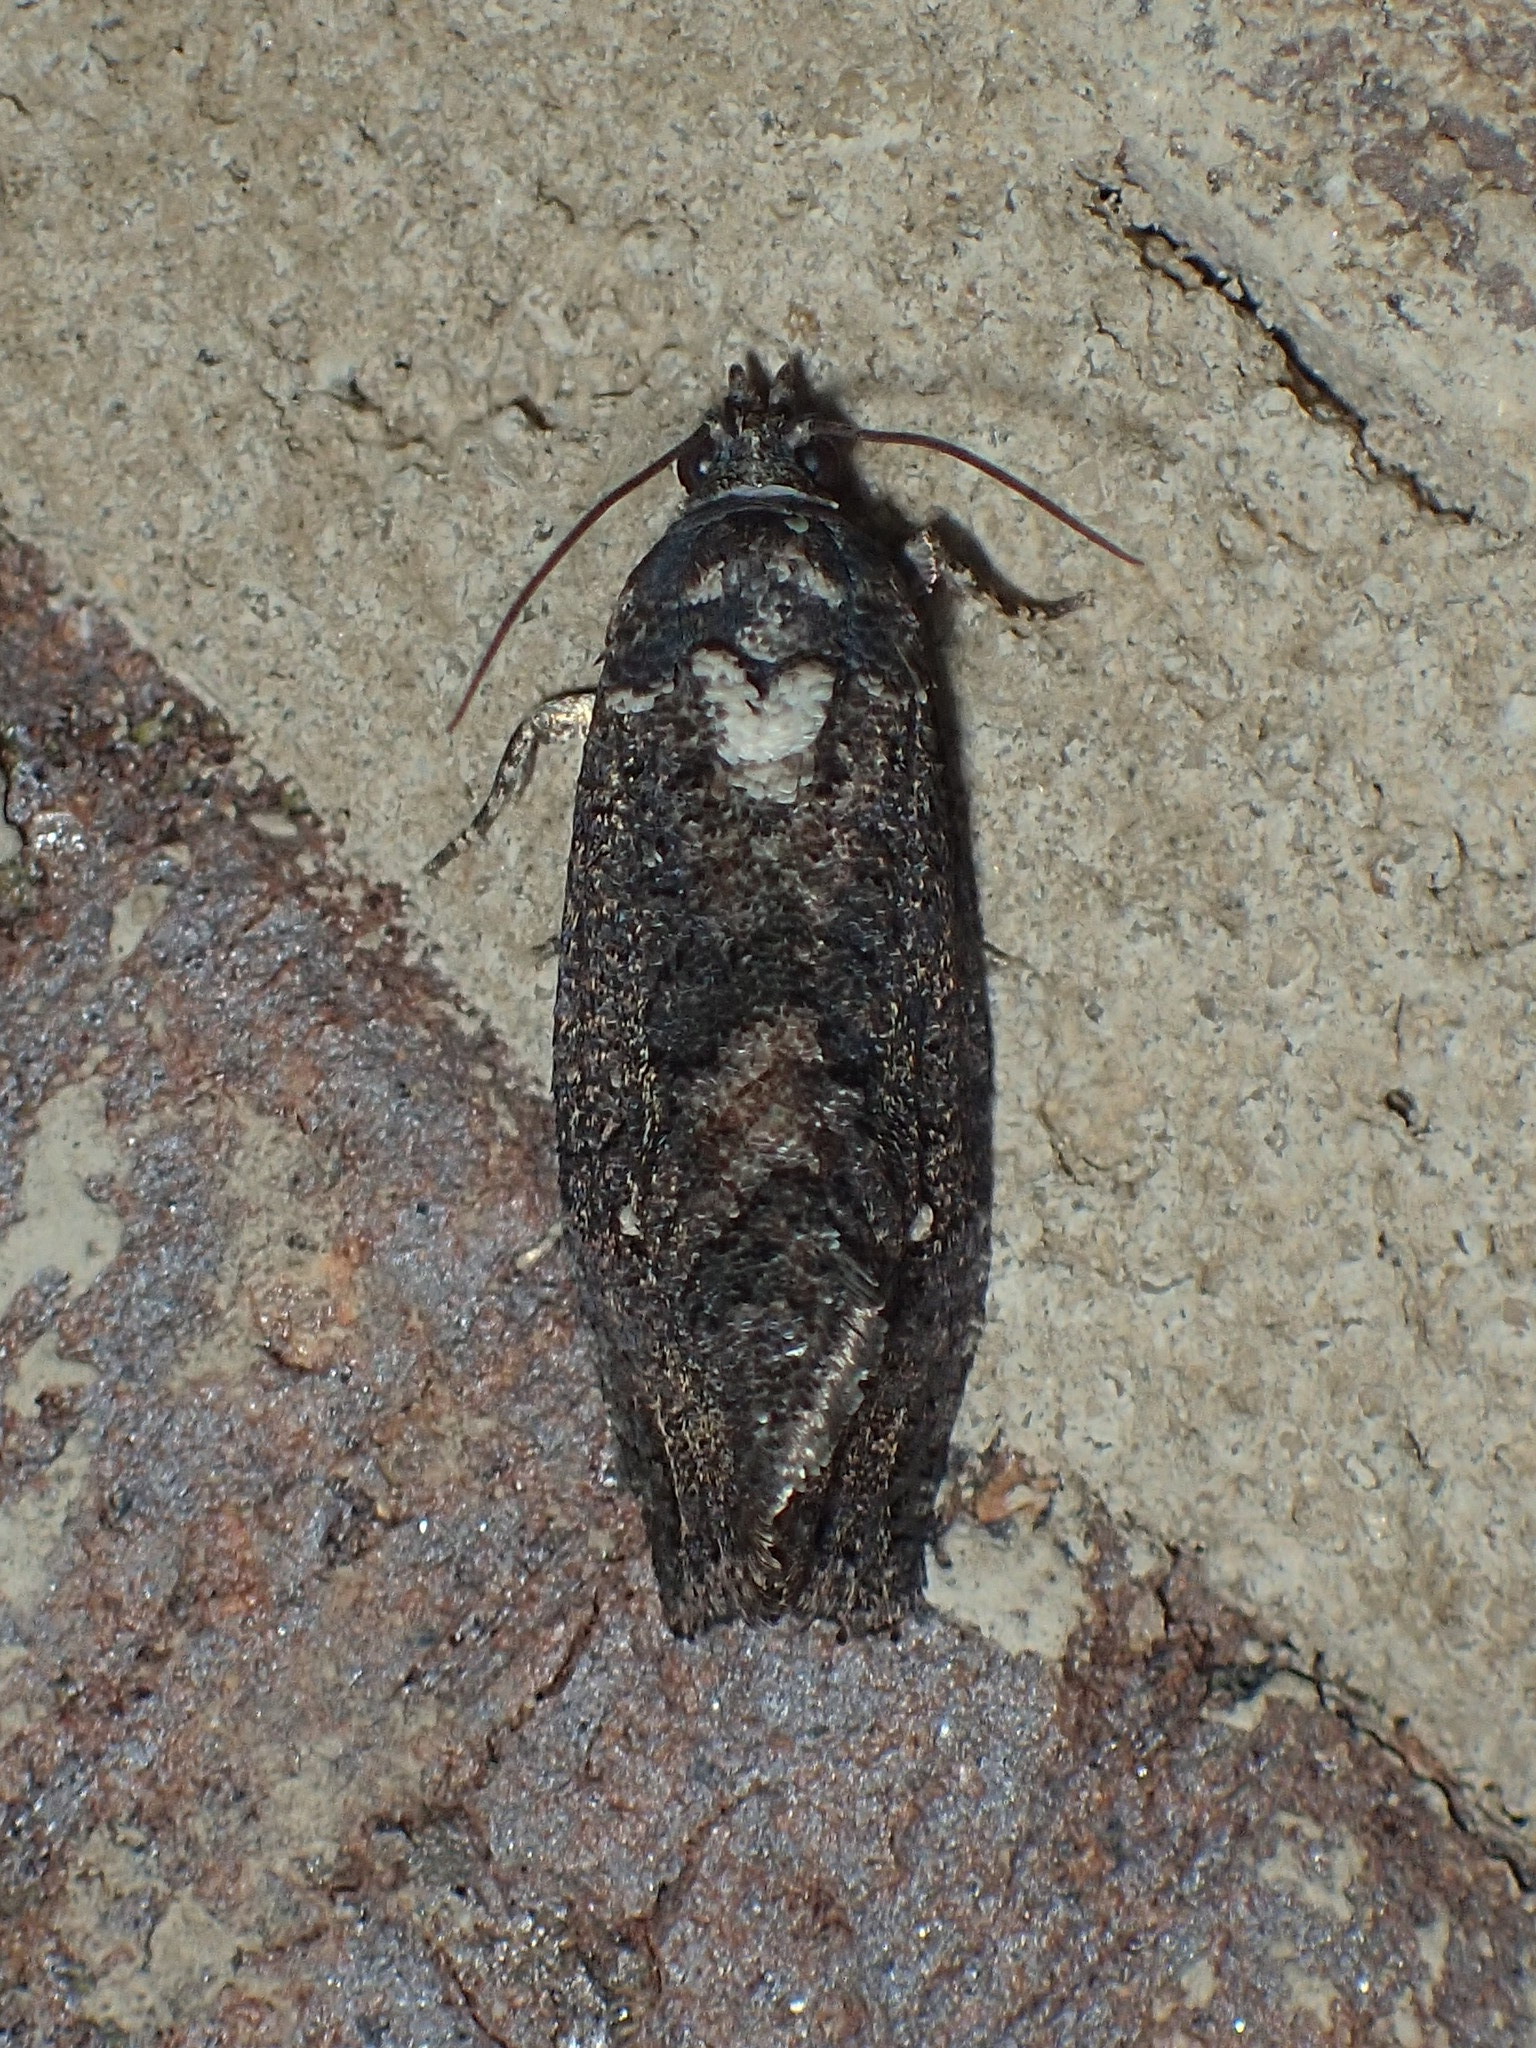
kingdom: Animalia
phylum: Arthropoda
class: Insecta
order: Lepidoptera
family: Tortricidae
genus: Gymnandrosoma
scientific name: Gymnandrosoma punctidiscanum
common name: Dotted ecdytolopha moth
